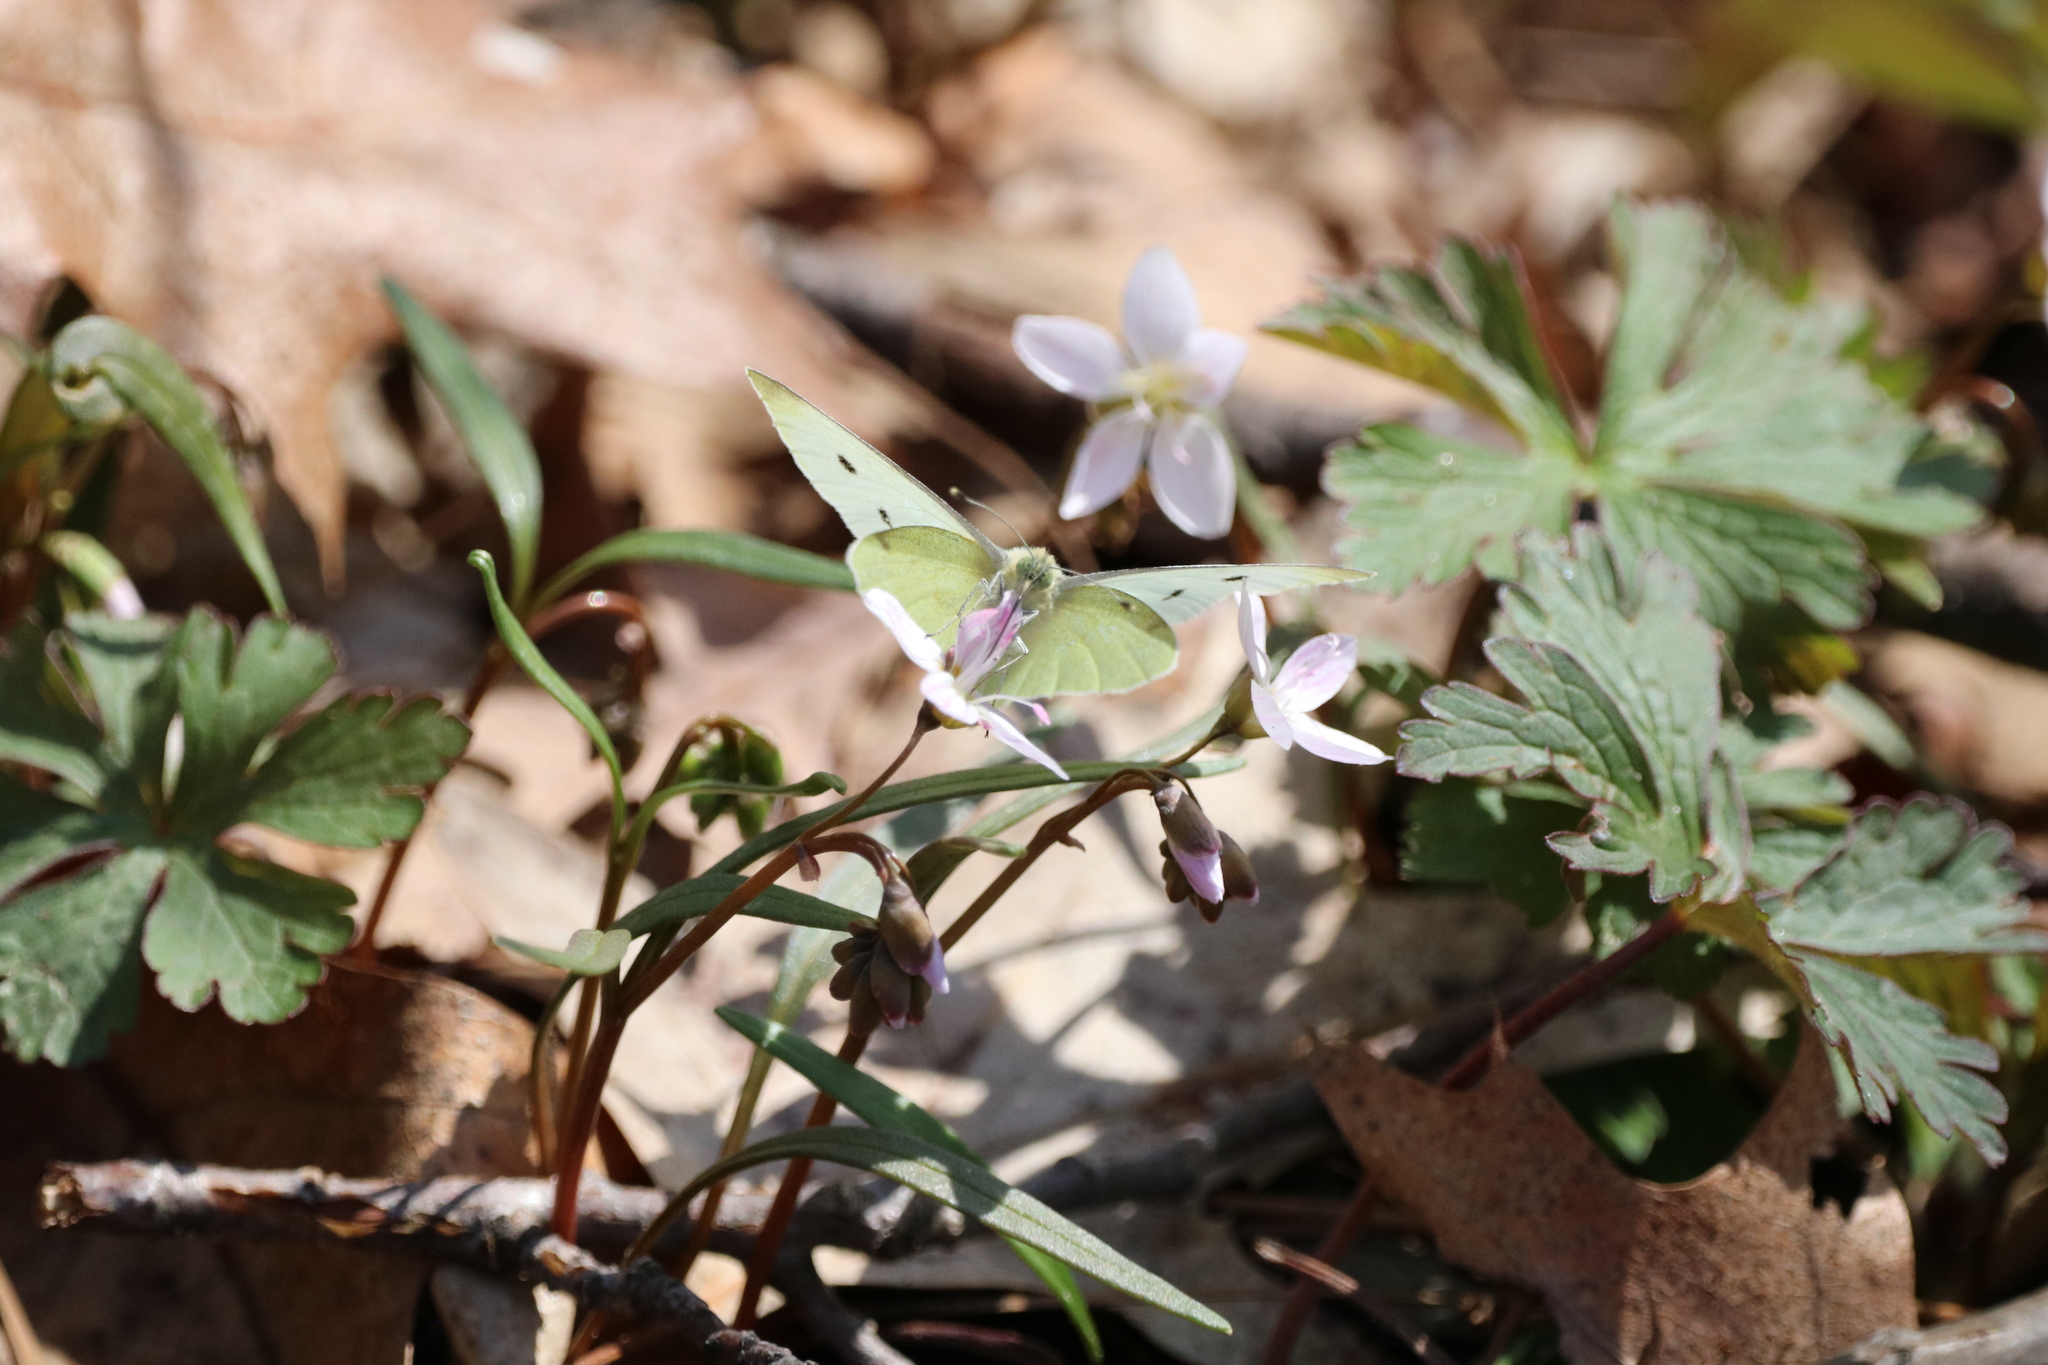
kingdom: Animalia
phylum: Arthropoda
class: Insecta
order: Lepidoptera
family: Pieridae
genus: Pieris
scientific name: Pieris rapae
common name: Small white
